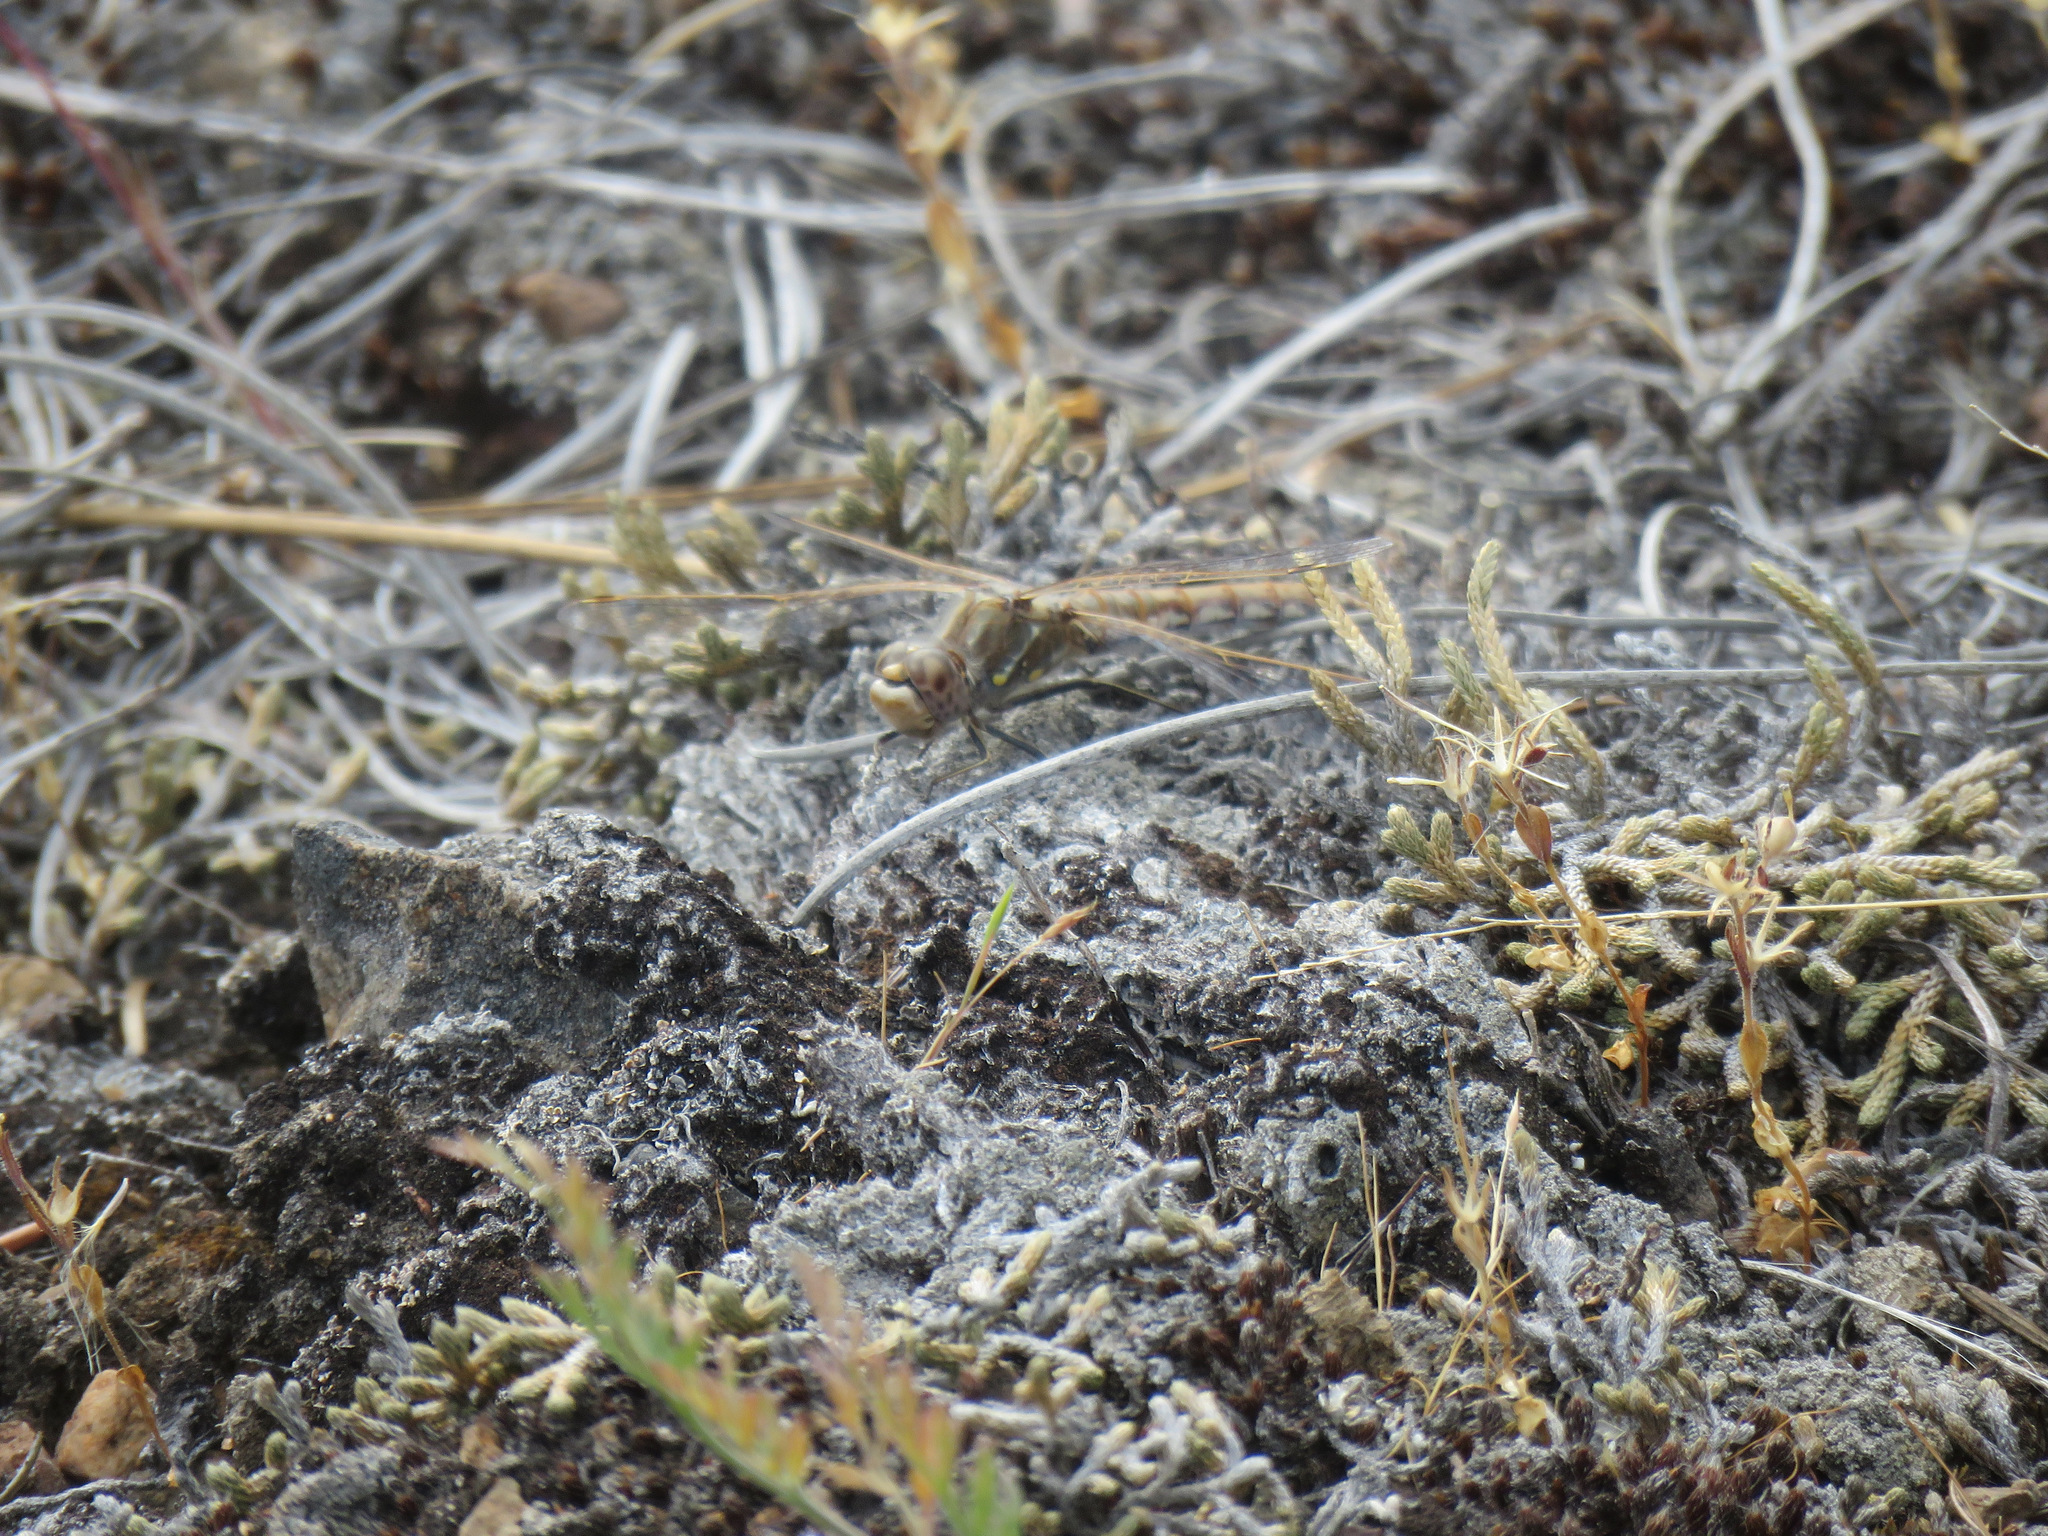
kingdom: Animalia
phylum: Arthropoda
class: Insecta
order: Odonata
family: Libellulidae
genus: Sympetrum
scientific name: Sympetrum corruptum
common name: Variegated meadowhawk
